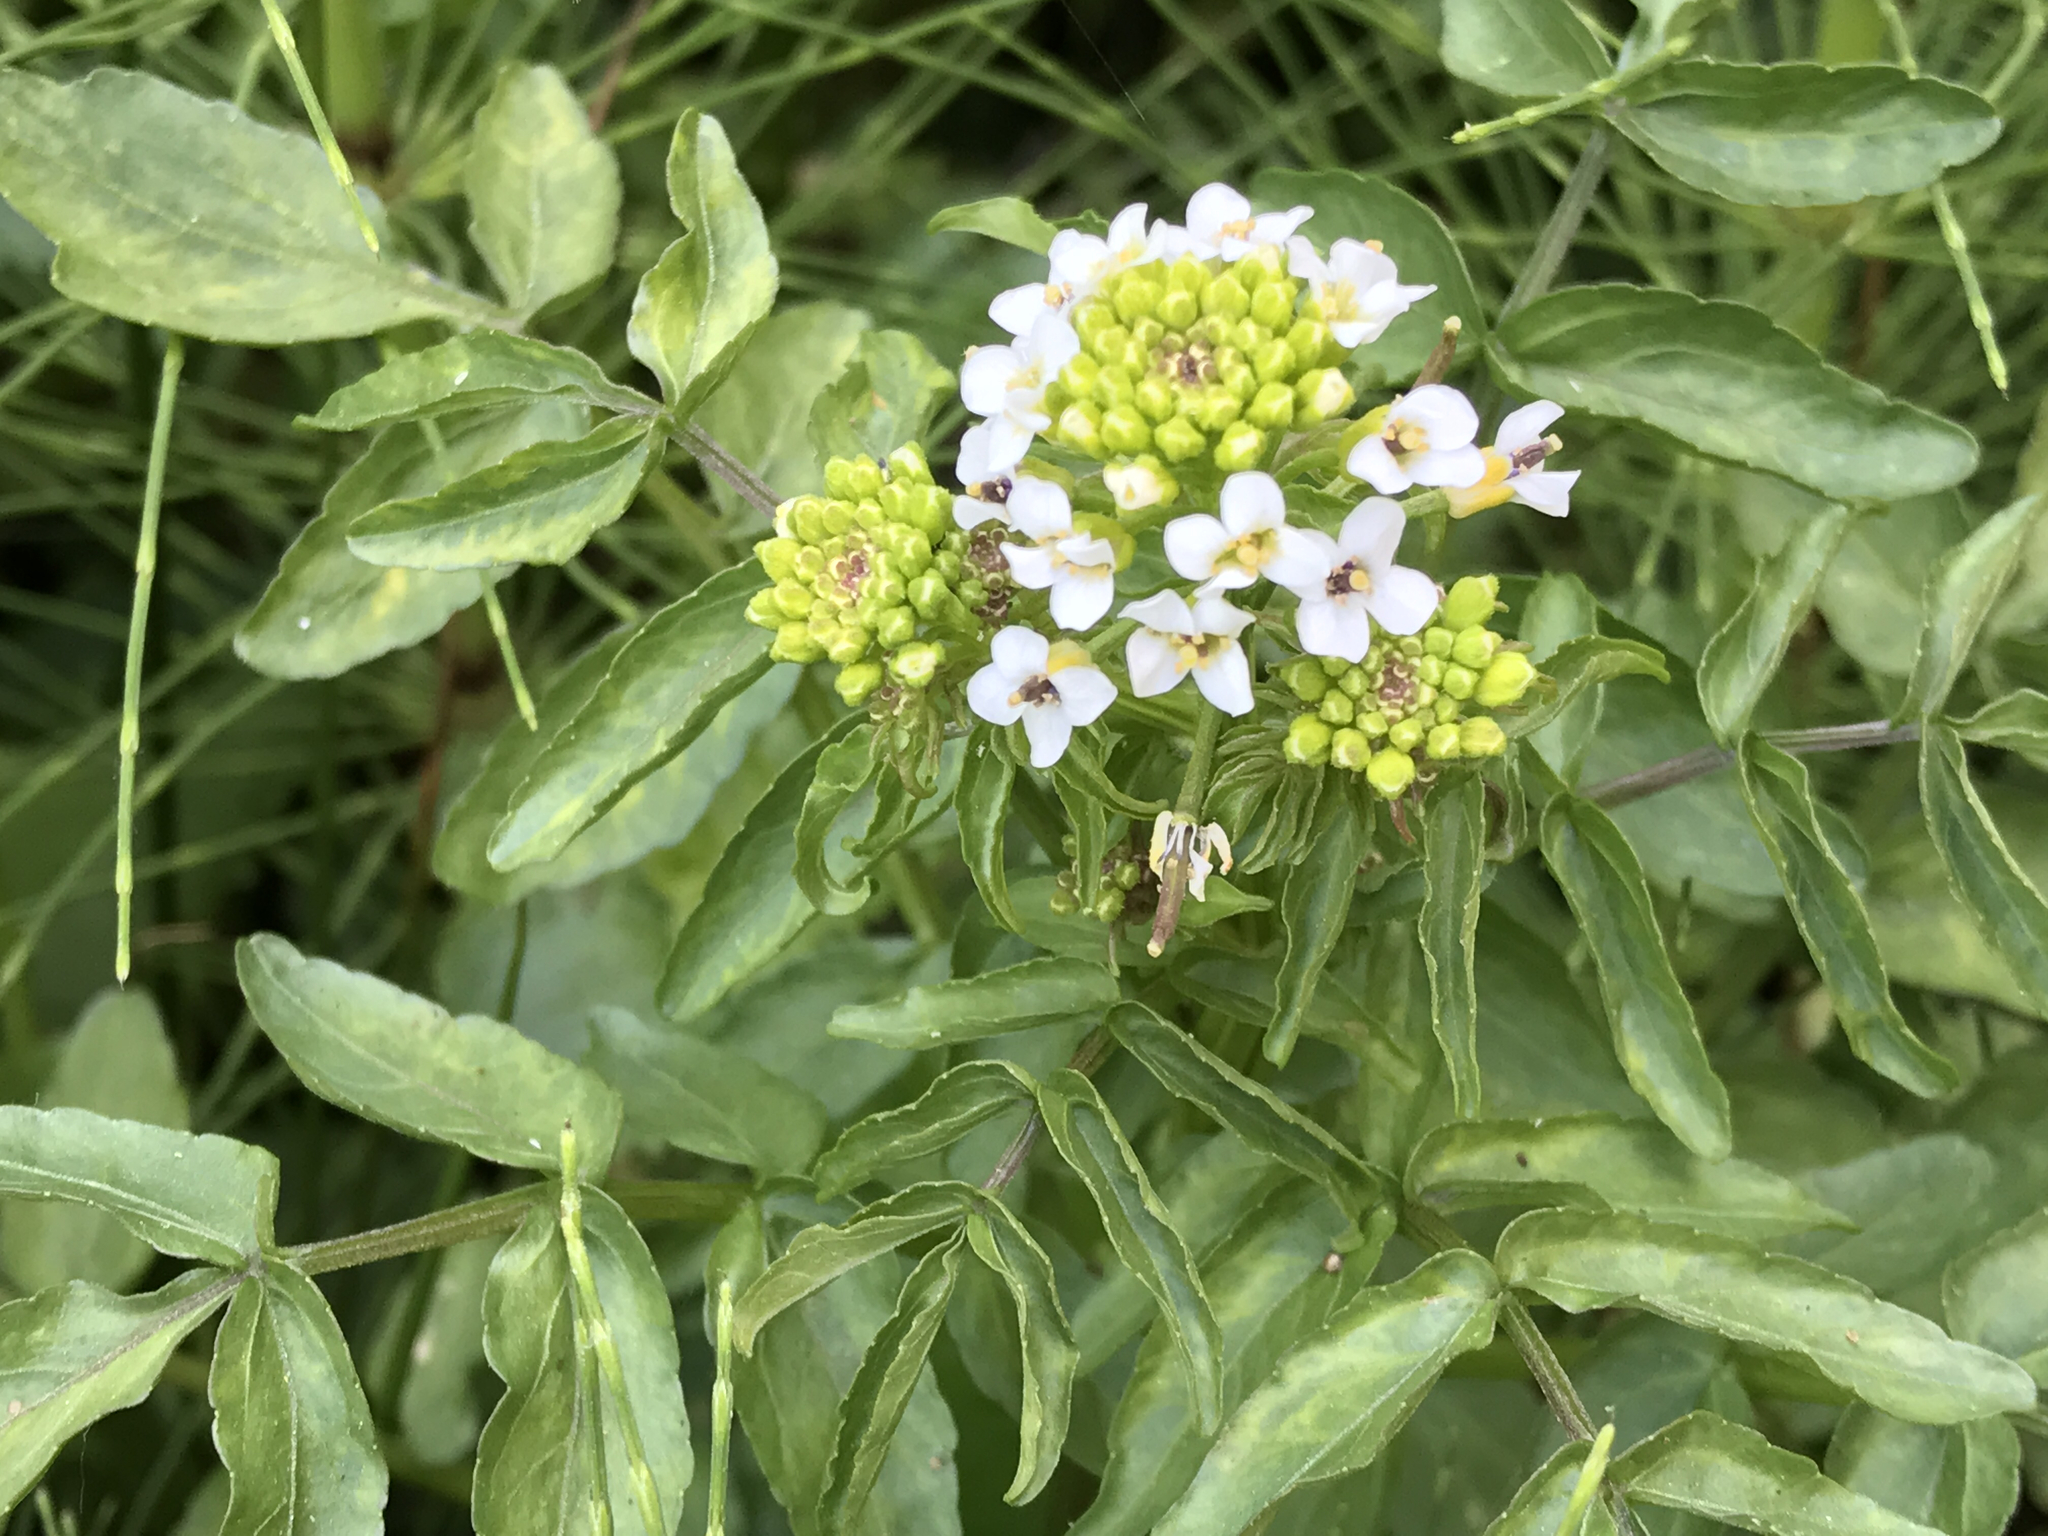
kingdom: Plantae
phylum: Tracheophyta
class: Magnoliopsida
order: Brassicales
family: Brassicaceae
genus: Nasturtium
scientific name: Nasturtium officinale
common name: Watercress
